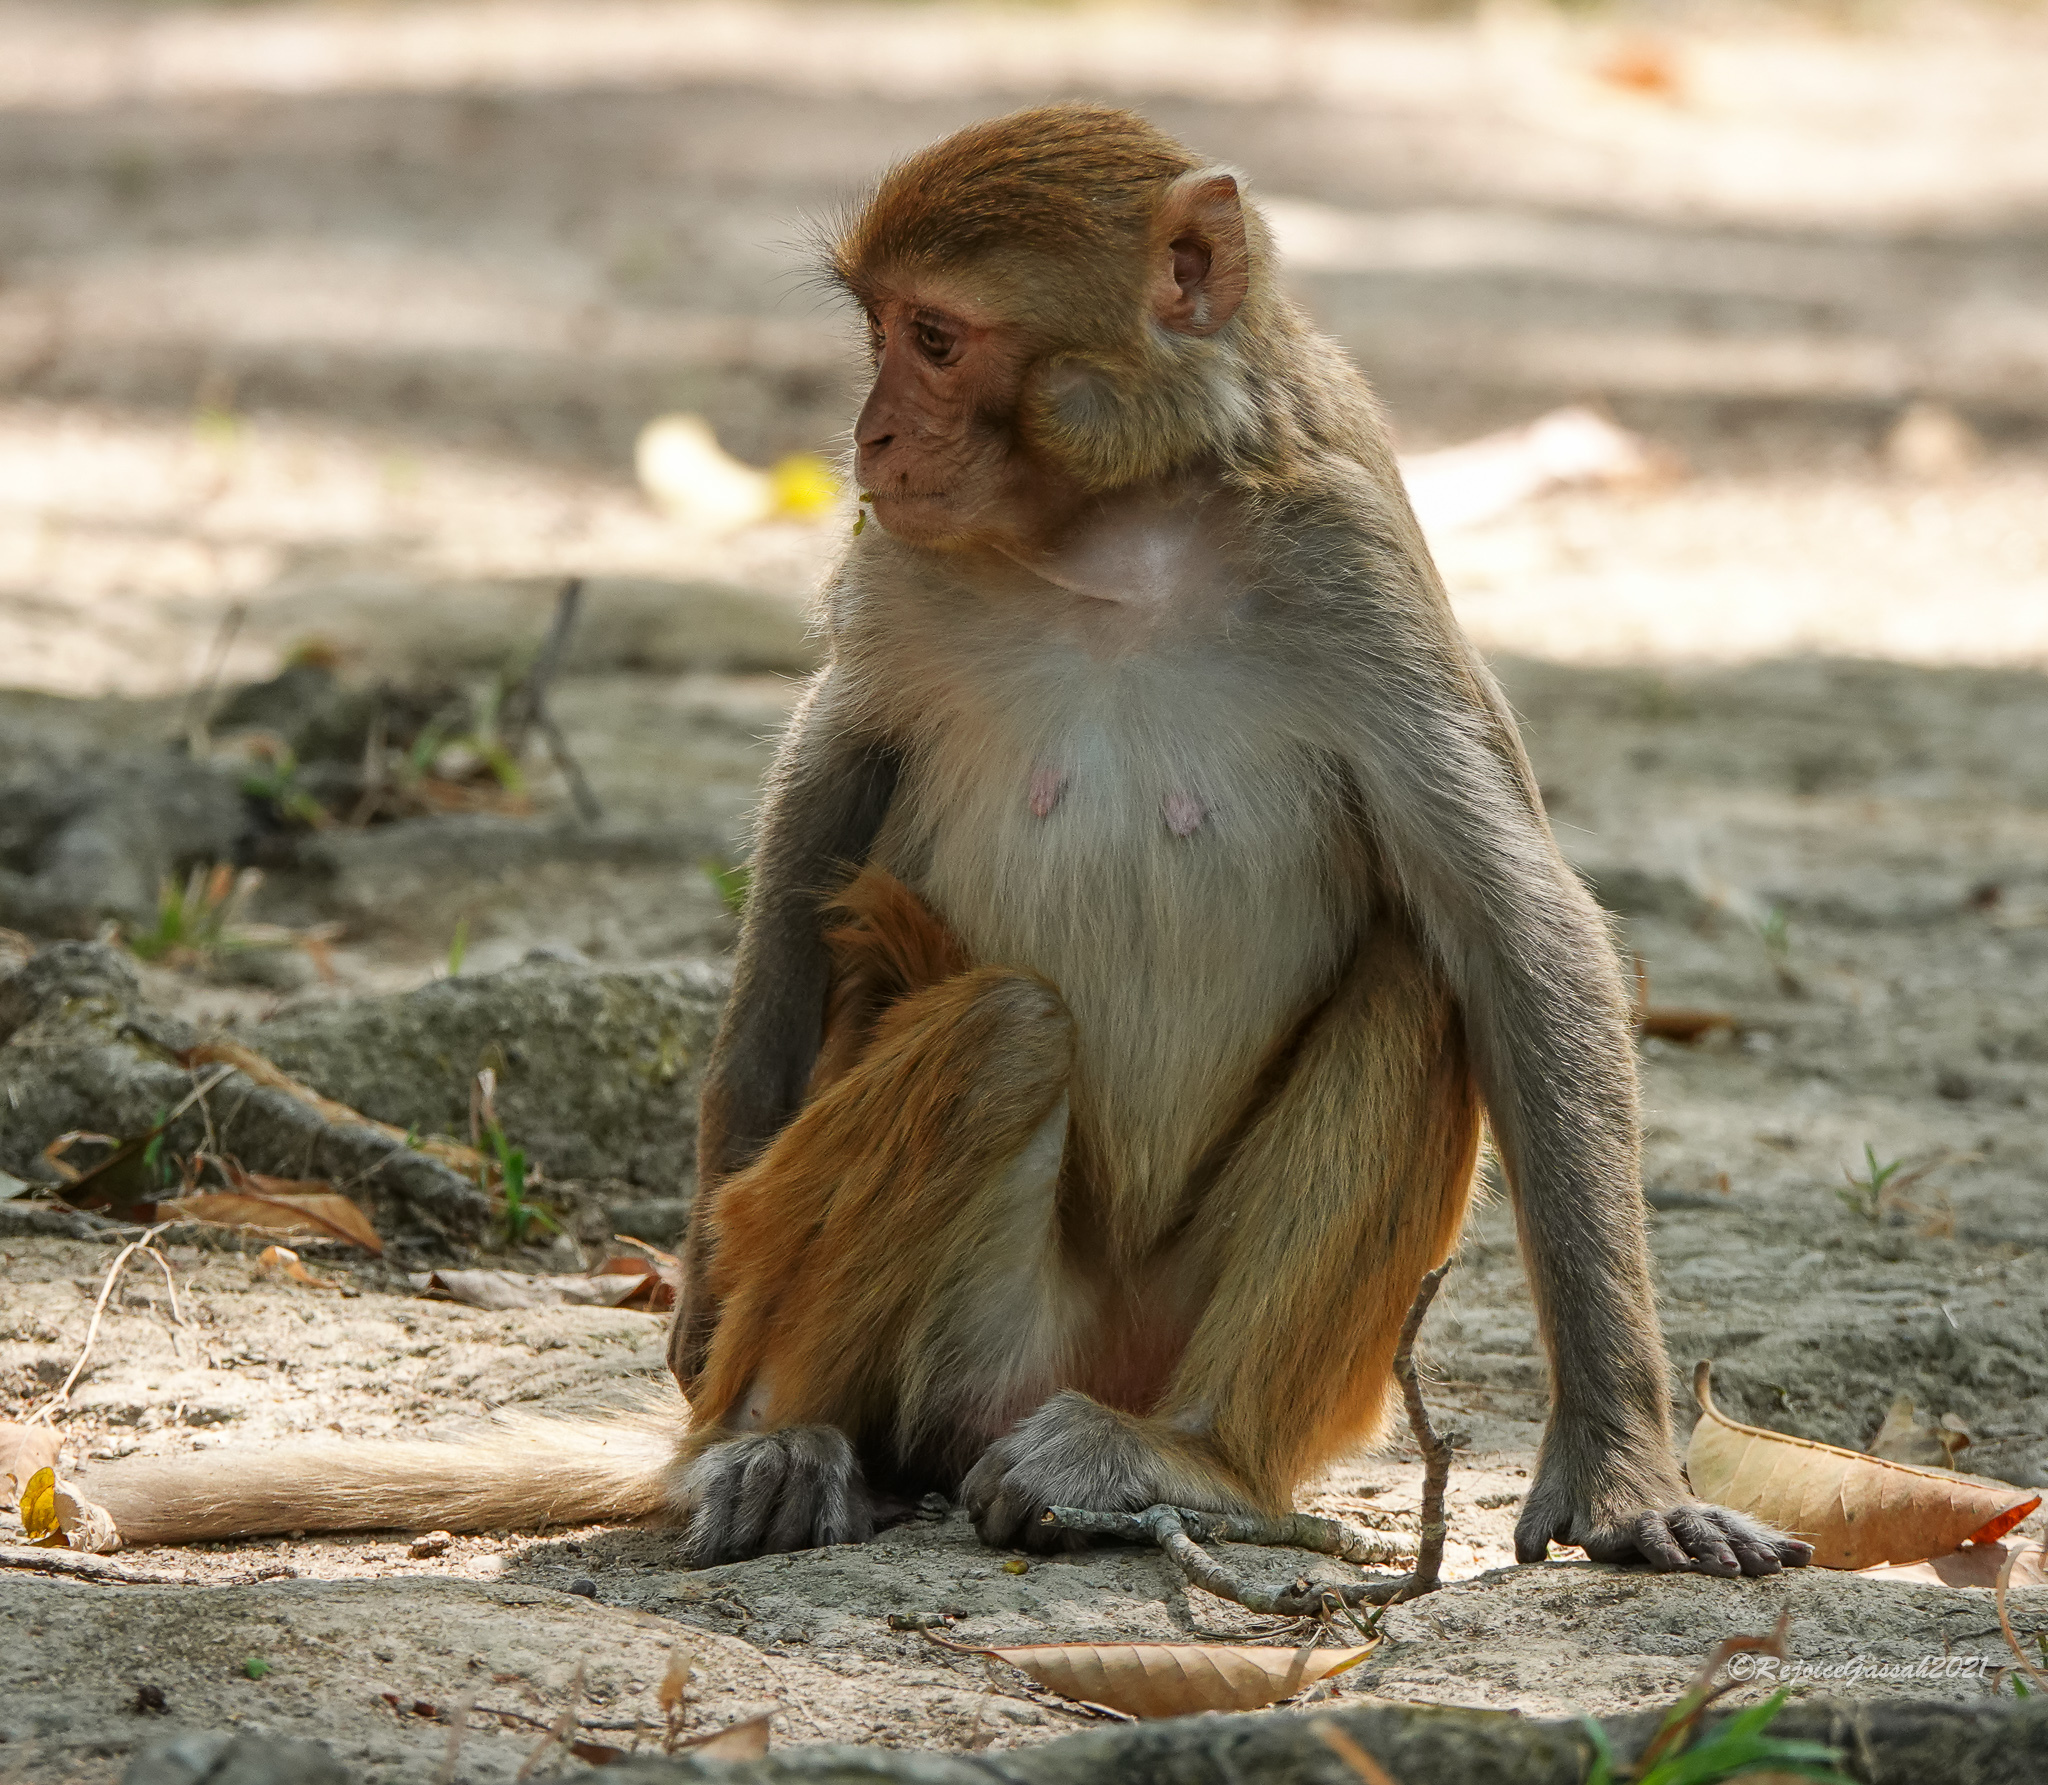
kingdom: Animalia
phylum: Chordata
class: Mammalia
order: Primates
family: Cercopithecidae
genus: Macaca
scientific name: Macaca mulatta
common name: Rhesus monkey
